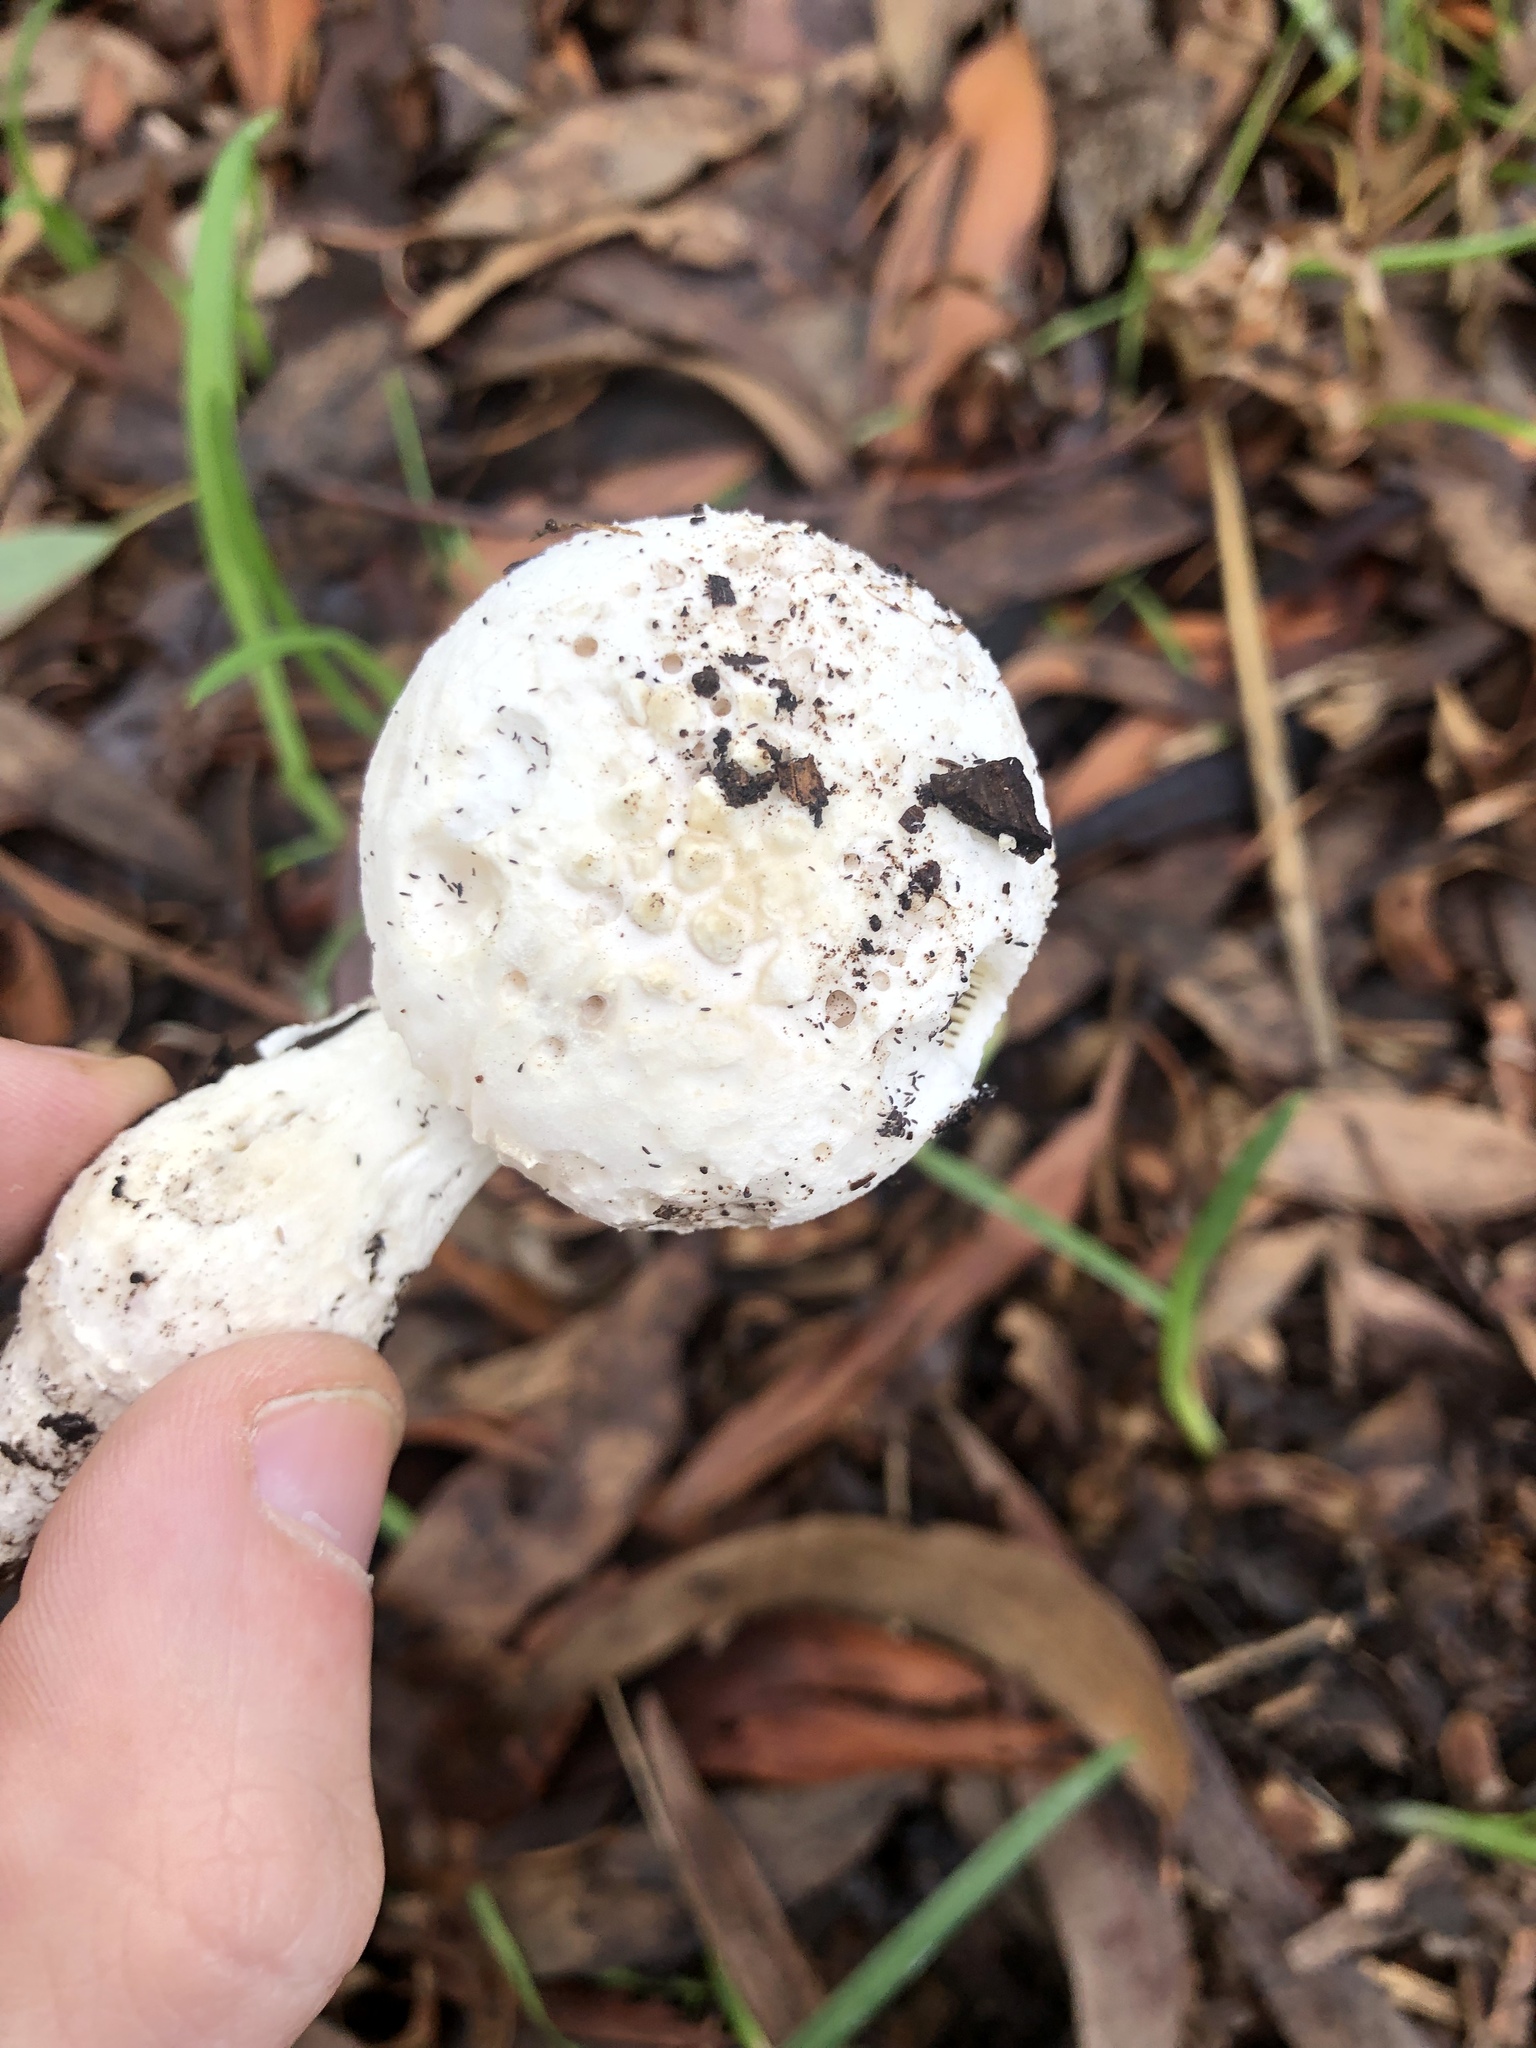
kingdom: Fungi
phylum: Basidiomycota
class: Agaricomycetes
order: Agaricales
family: Amanitaceae
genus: Amanita
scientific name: Amanita farinacea
